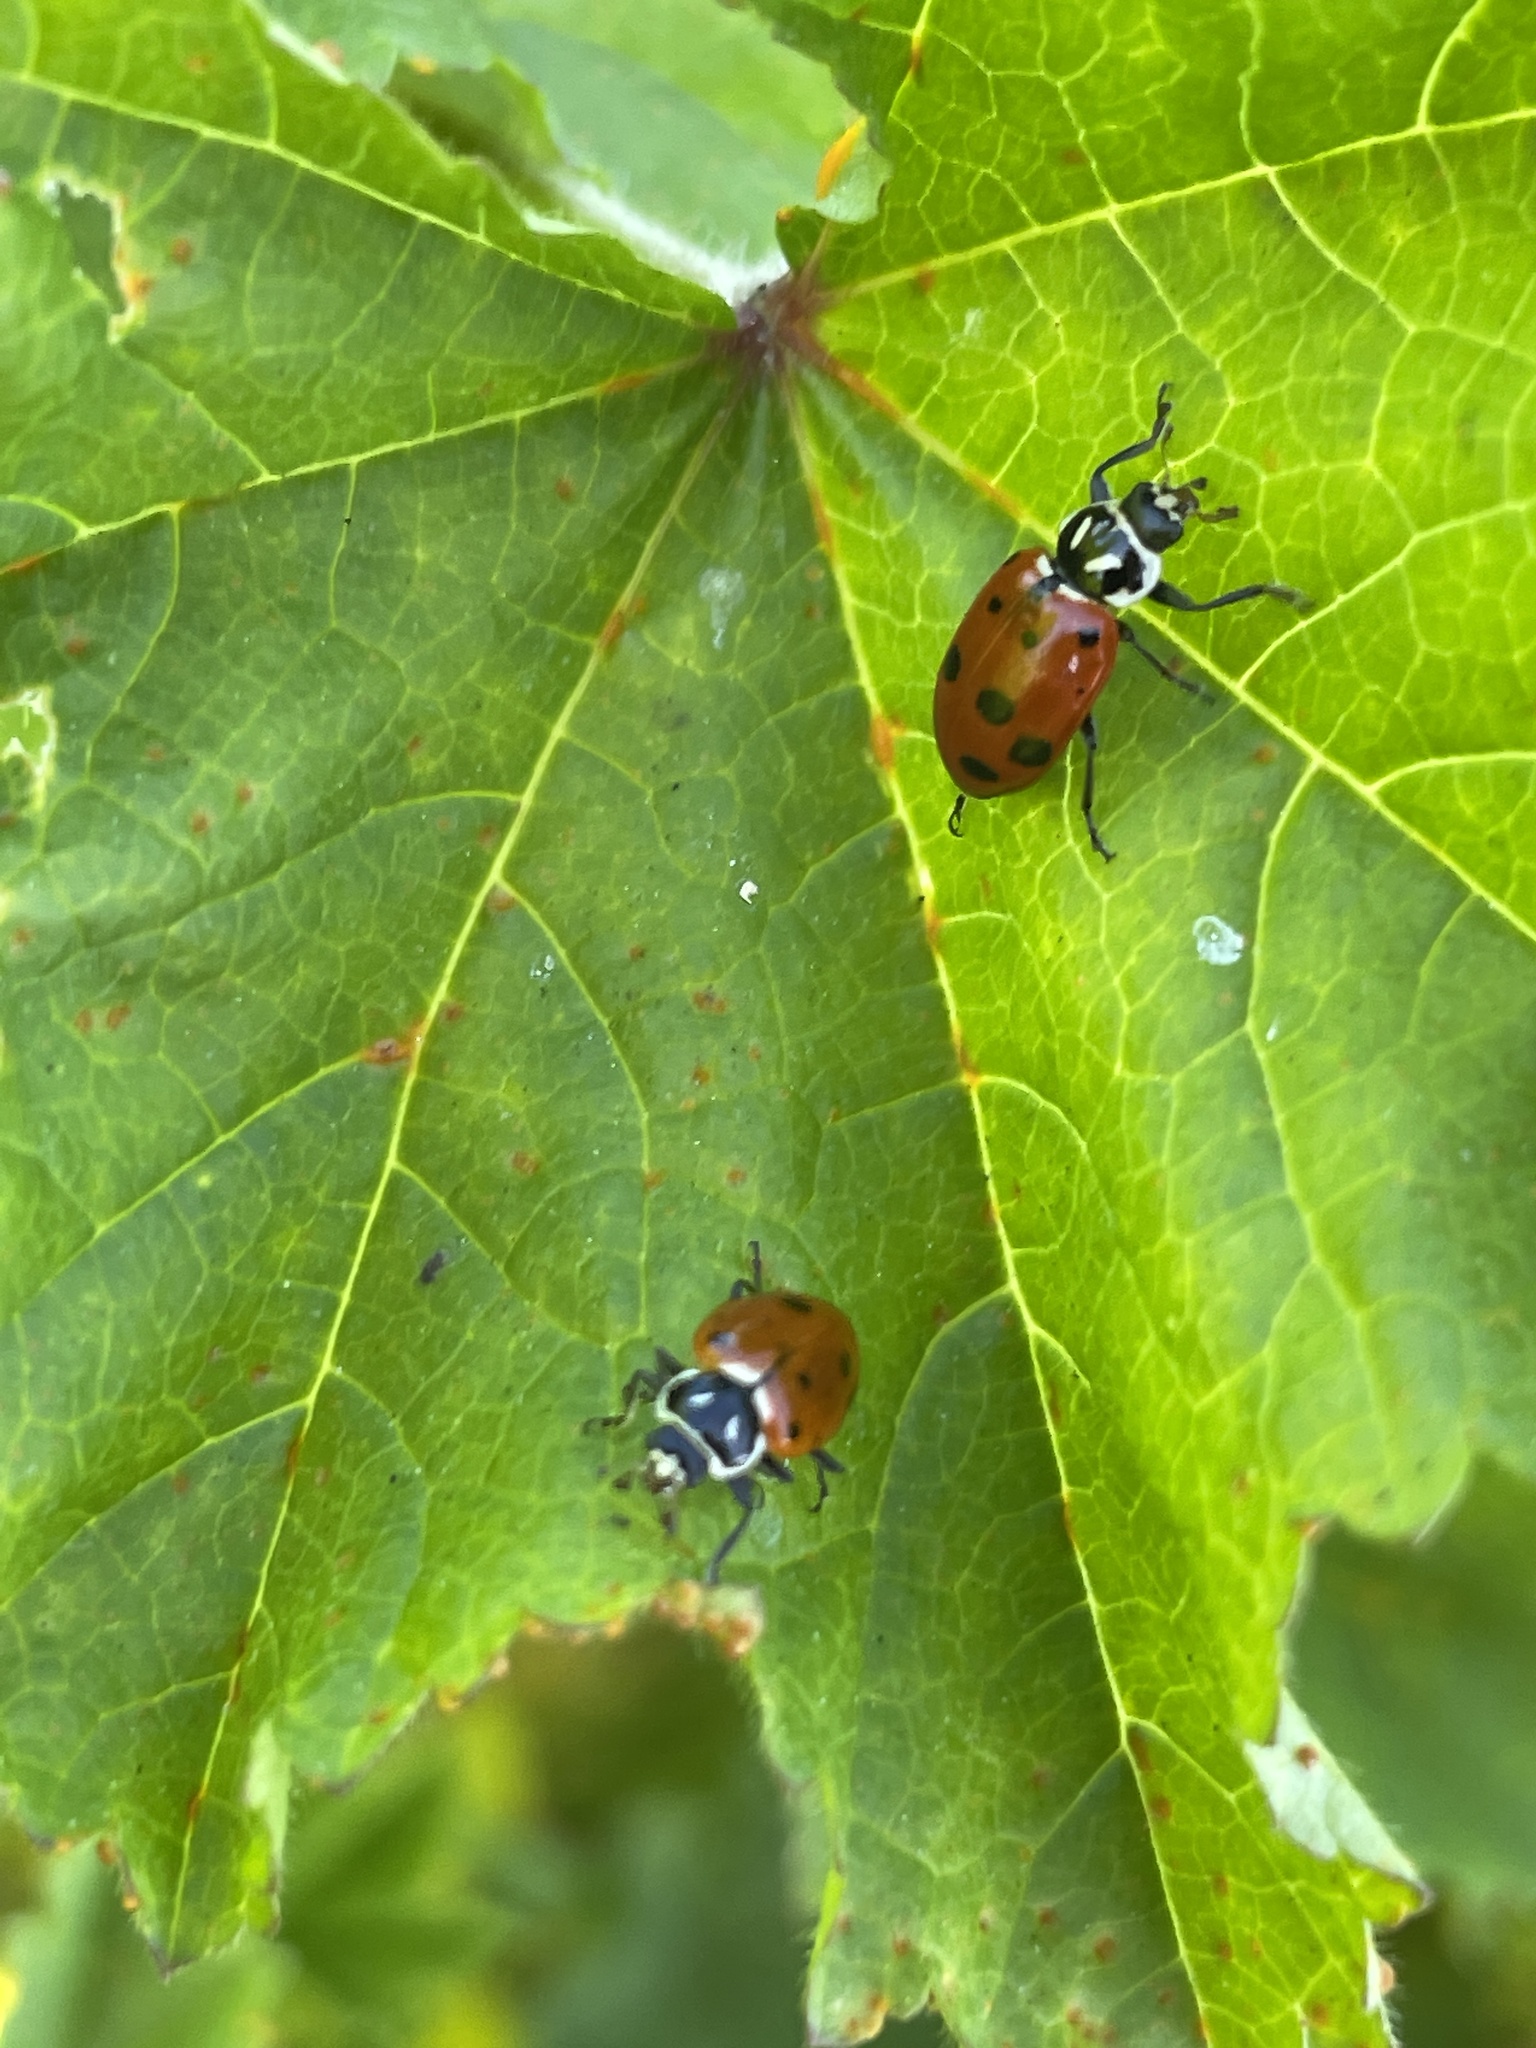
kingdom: Animalia
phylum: Arthropoda
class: Insecta
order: Coleoptera
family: Coccinellidae
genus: Hippodamia
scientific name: Hippodamia convergens
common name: Convergent lady beetle
